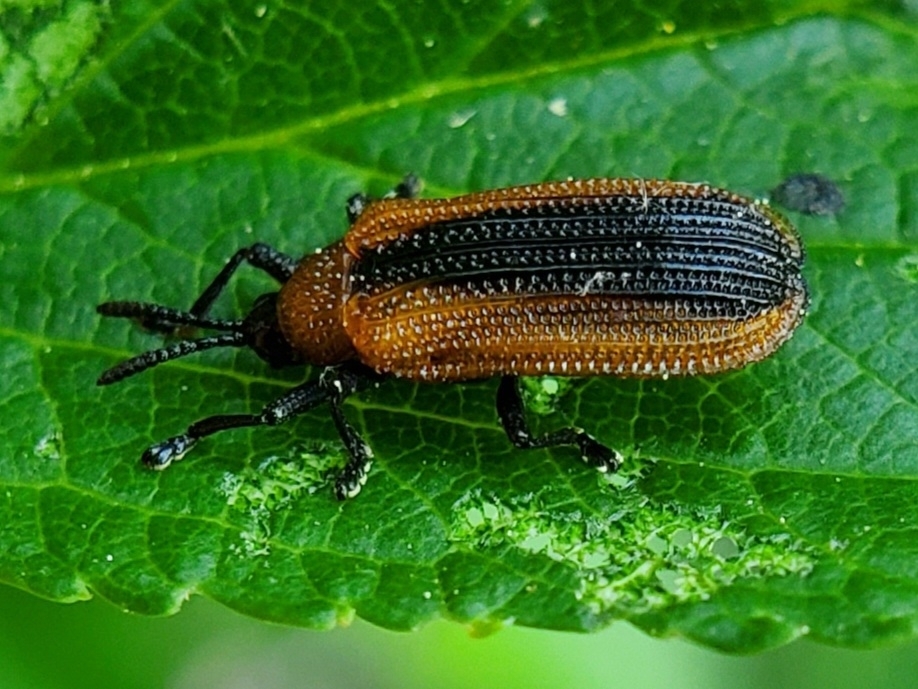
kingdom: Animalia
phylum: Arthropoda
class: Insecta
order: Coleoptera
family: Chrysomelidae
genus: Odontota
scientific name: Odontota dorsalis
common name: Locust leaf-miner beetle
